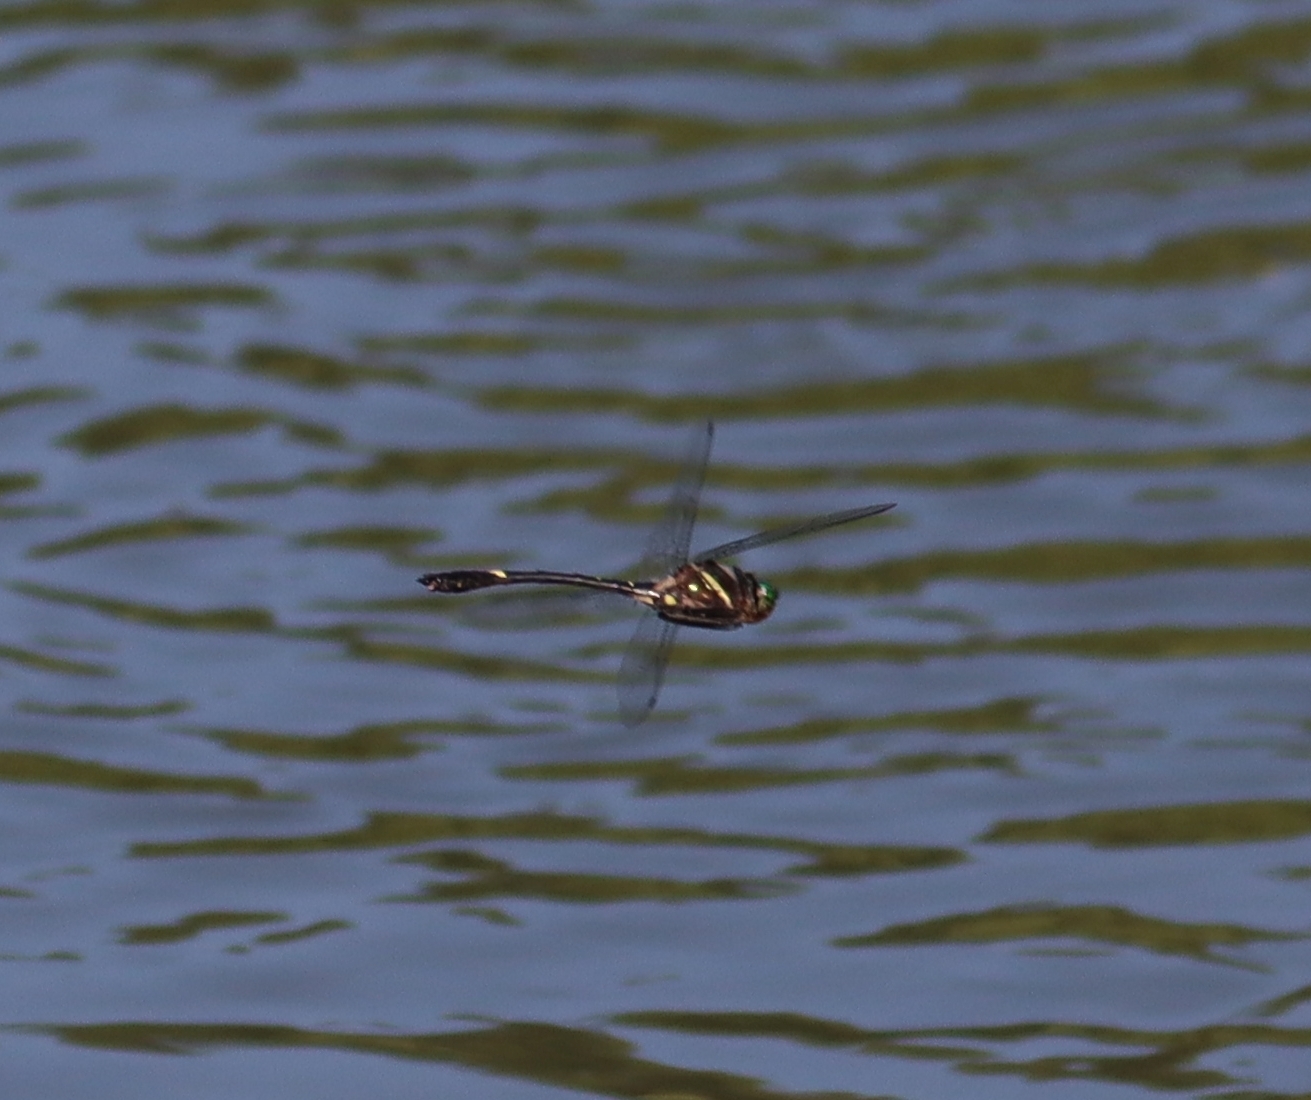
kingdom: Animalia
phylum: Arthropoda
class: Insecta
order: Odonata
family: Macromiidae
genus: Macromia
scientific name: Macromia illinoiensis
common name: Swift river cruiser
